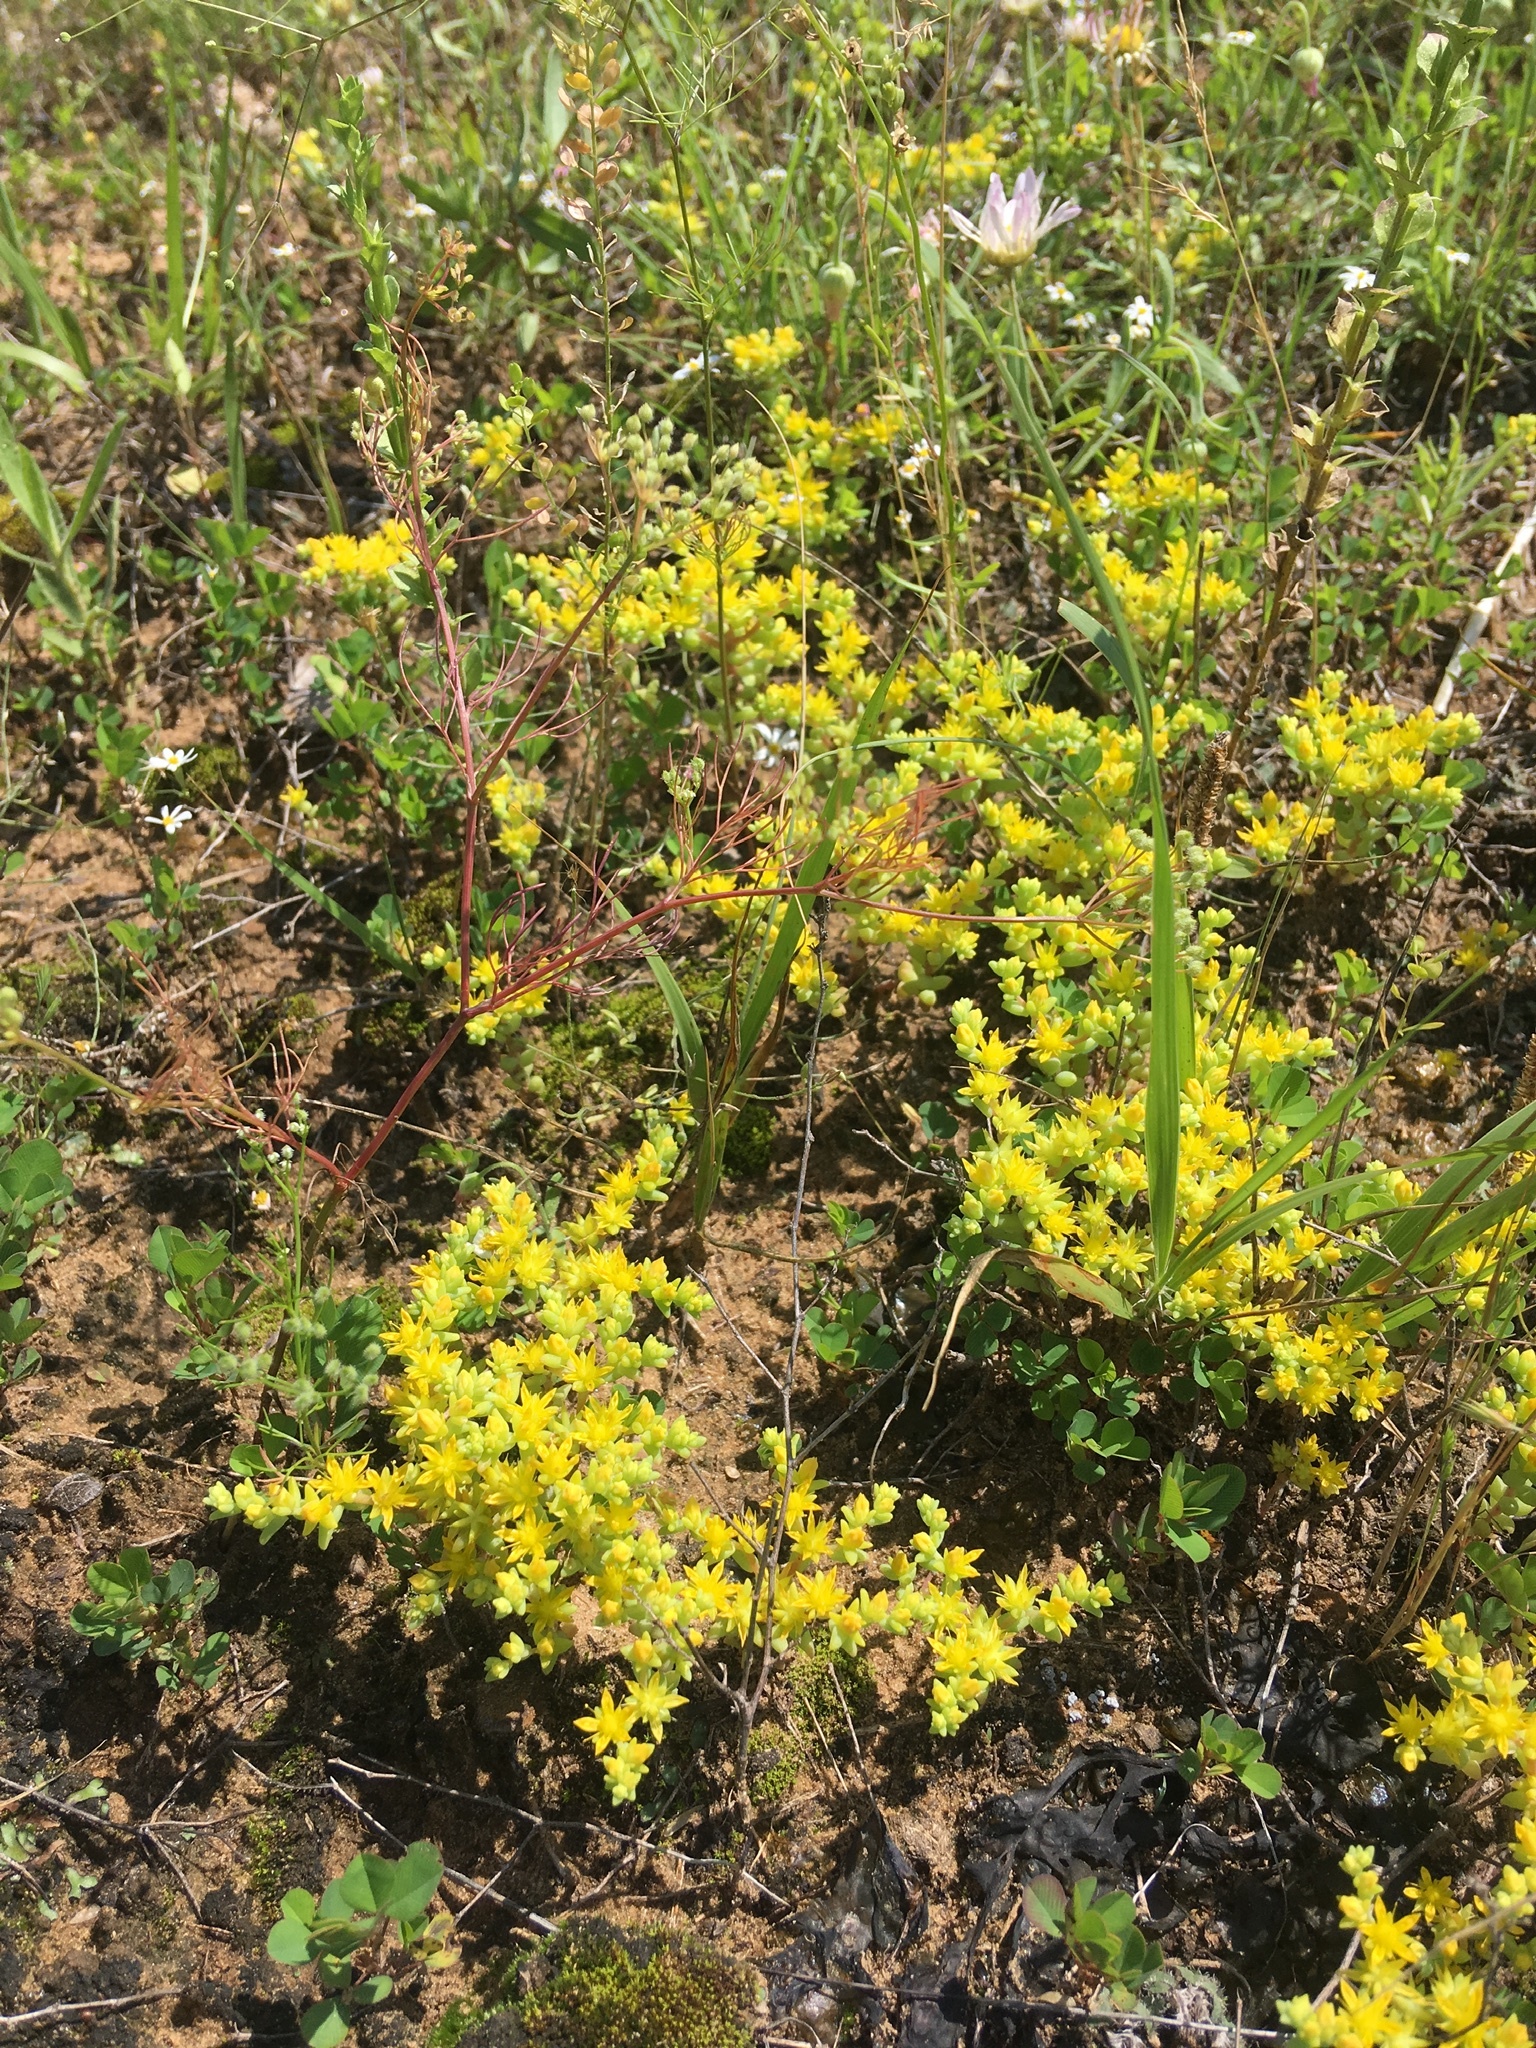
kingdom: Plantae
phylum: Tracheophyta
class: Magnoliopsida
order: Saxifragales
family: Crassulaceae
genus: Sedum
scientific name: Sedum nuttallii
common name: Yellow stonecrop
